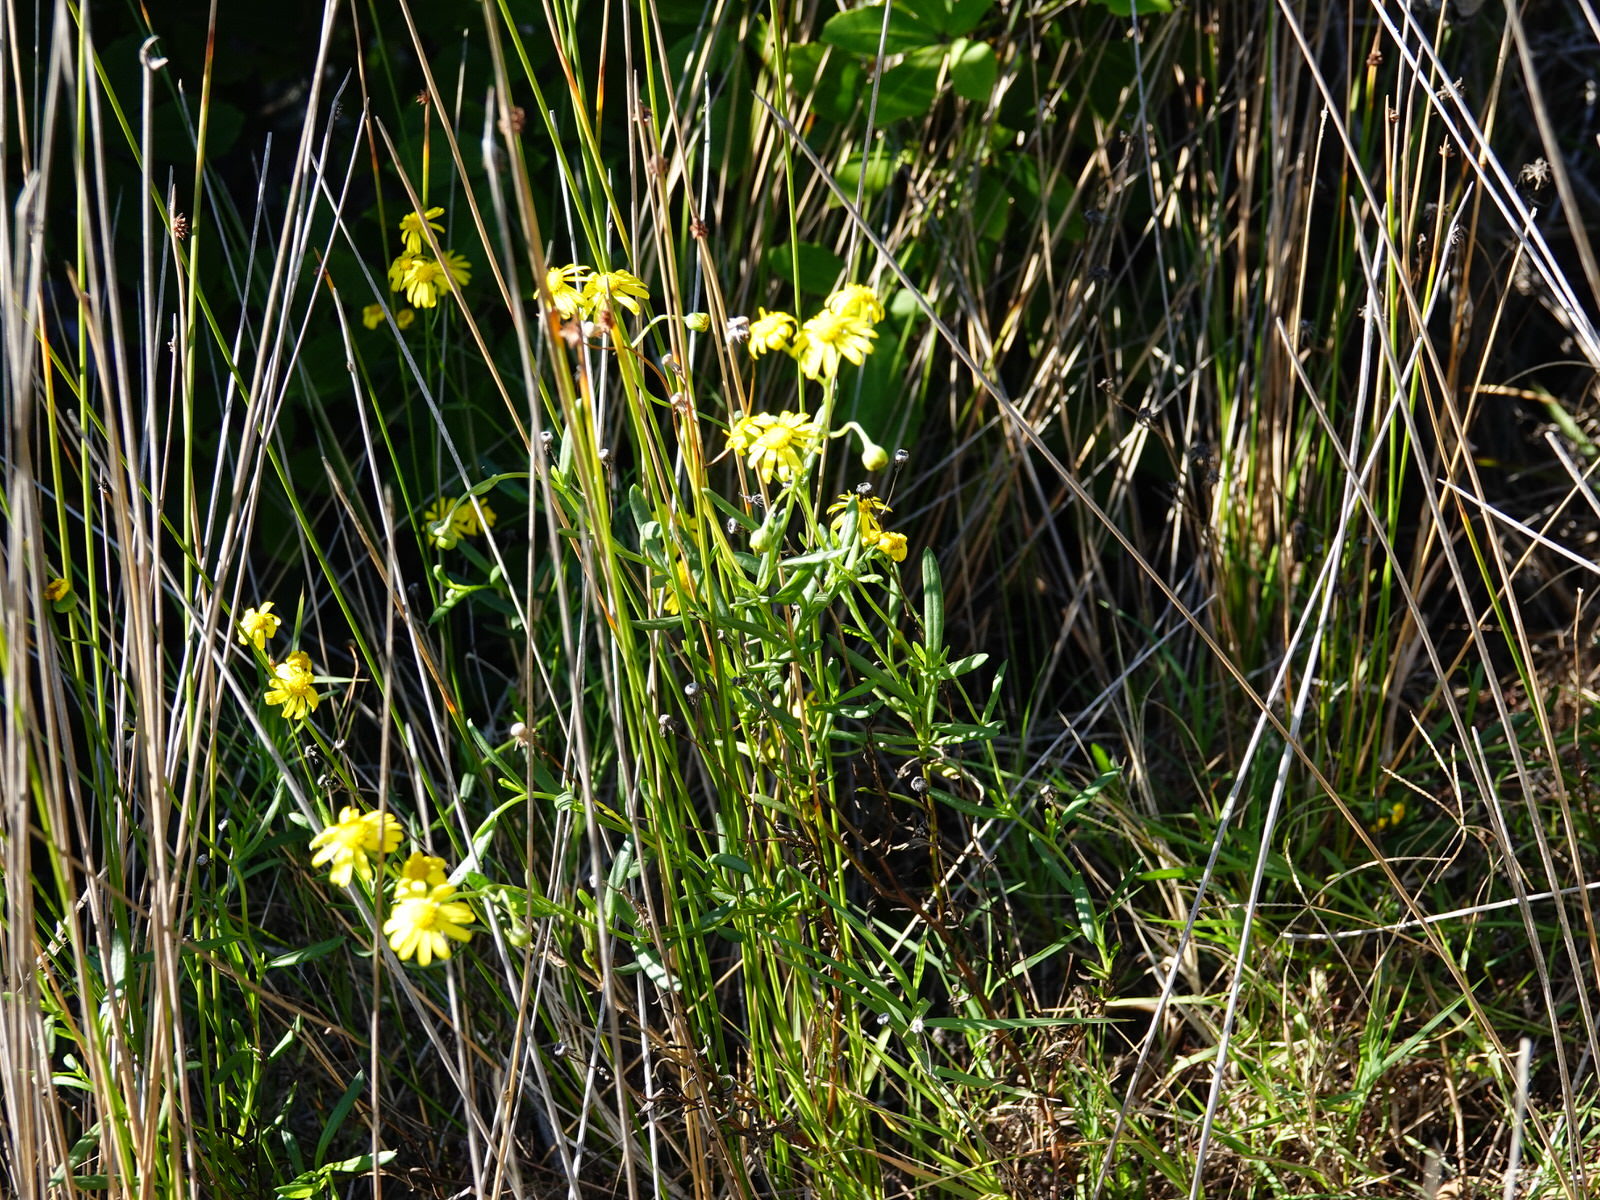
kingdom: Plantae
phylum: Tracheophyta
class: Magnoliopsida
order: Asterales
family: Asteraceae
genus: Senecio
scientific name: Senecio skirrhodon
